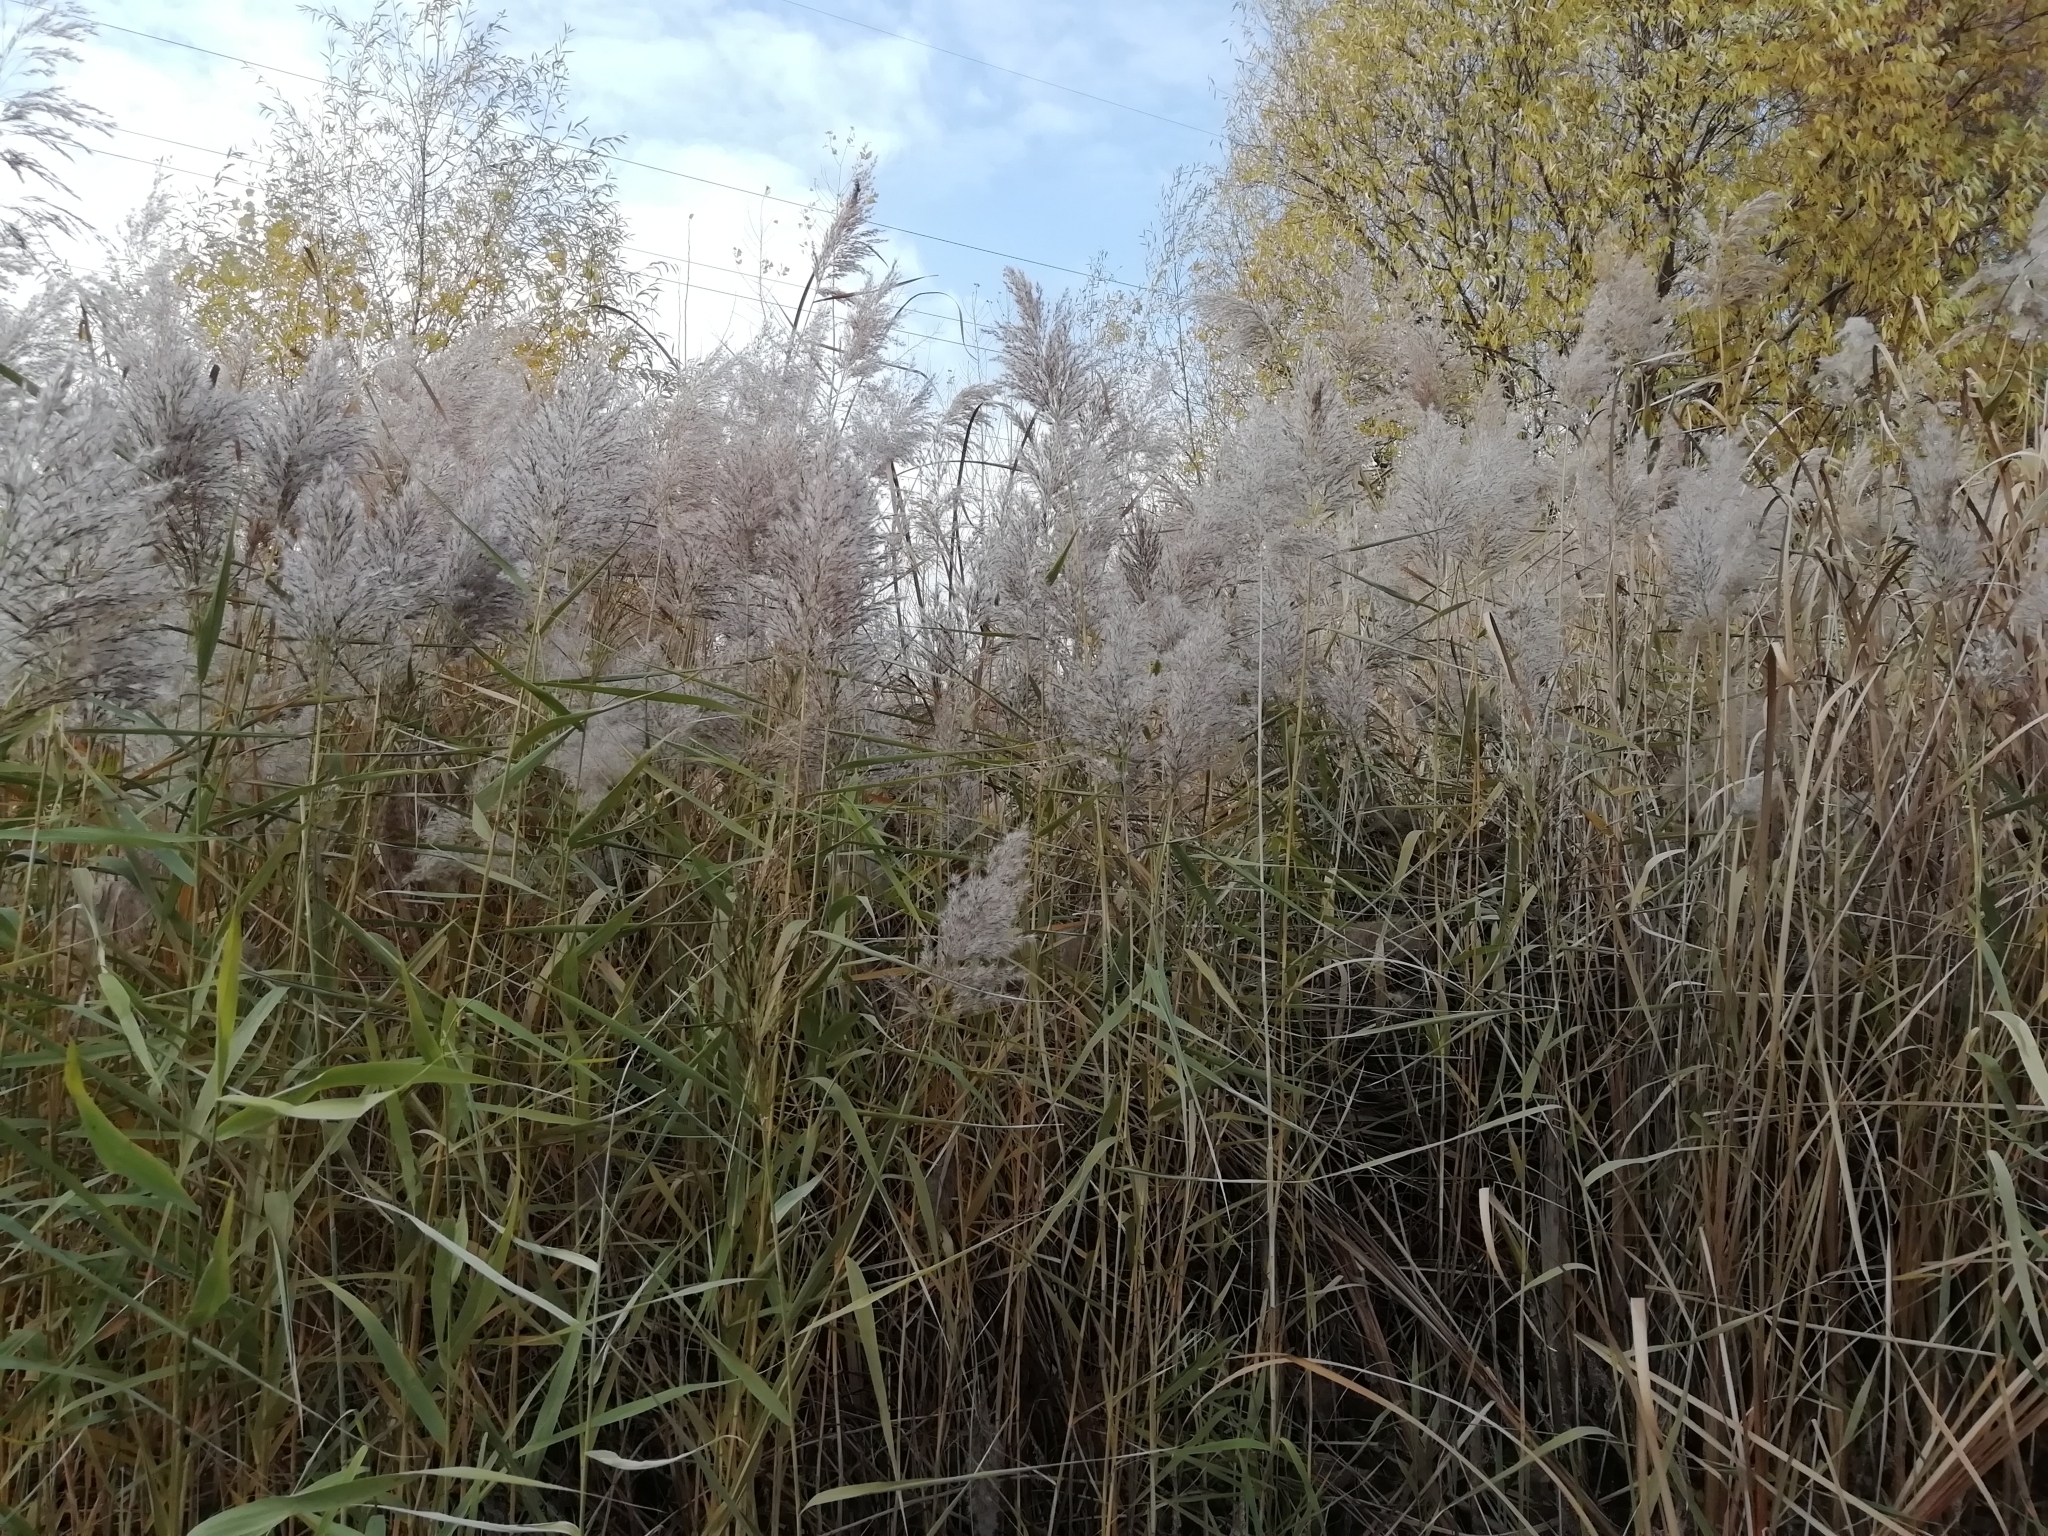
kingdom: Plantae
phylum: Tracheophyta
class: Liliopsida
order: Poales
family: Poaceae
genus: Phragmites
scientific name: Phragmites australis
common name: Common reed
